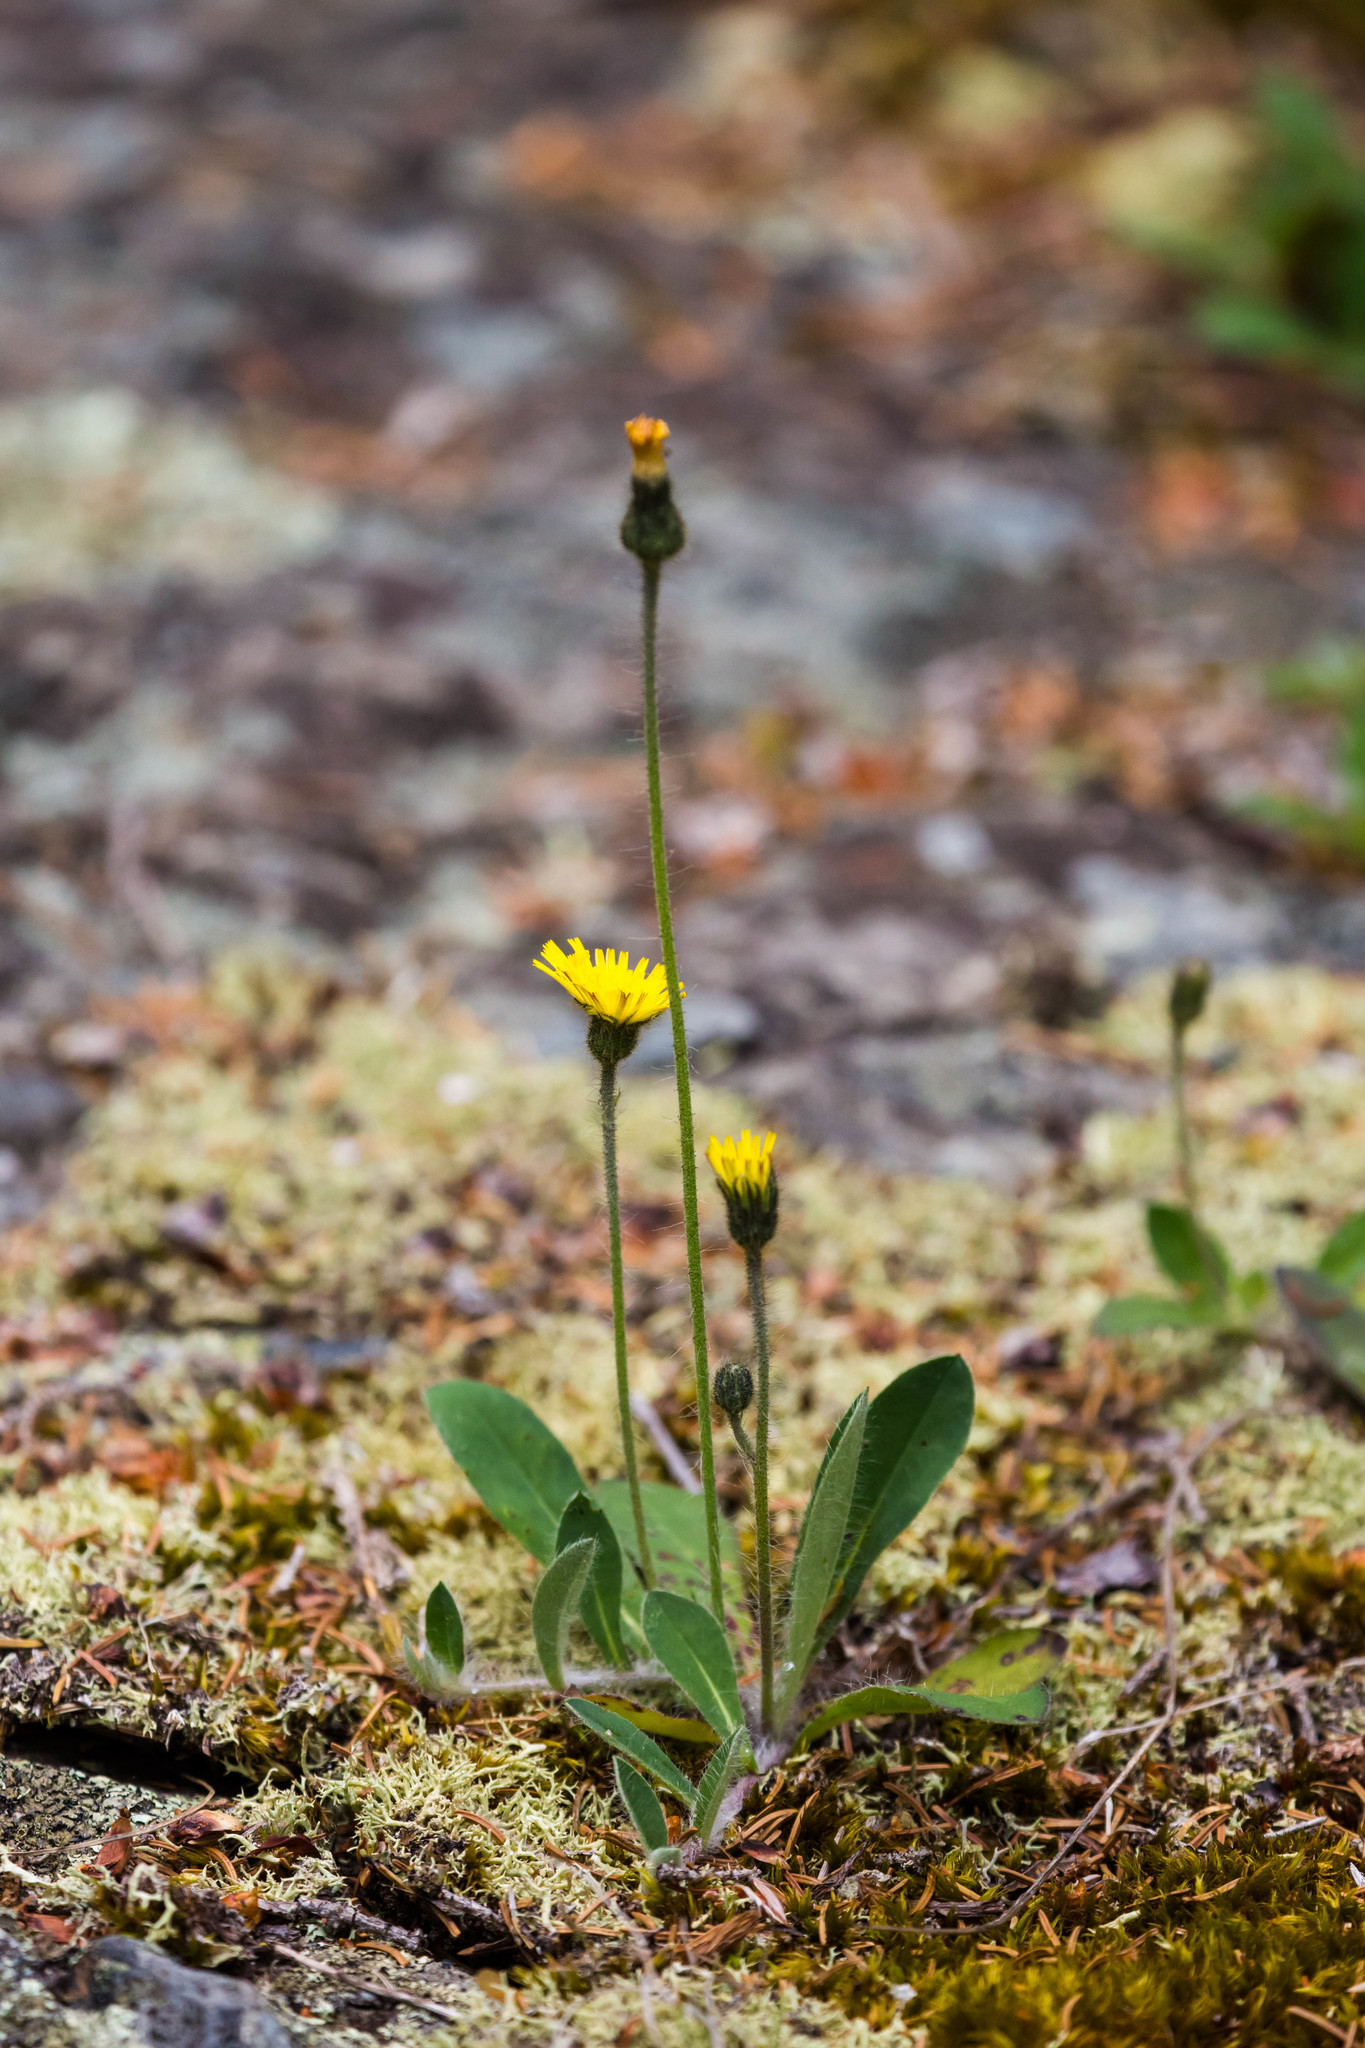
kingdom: Plantae
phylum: Tracheophyta
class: Magnoliopsida
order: Asterales
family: Asteraceae
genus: Pilosella
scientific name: Pilosella officinarum
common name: Mouse-ear hawkweed
